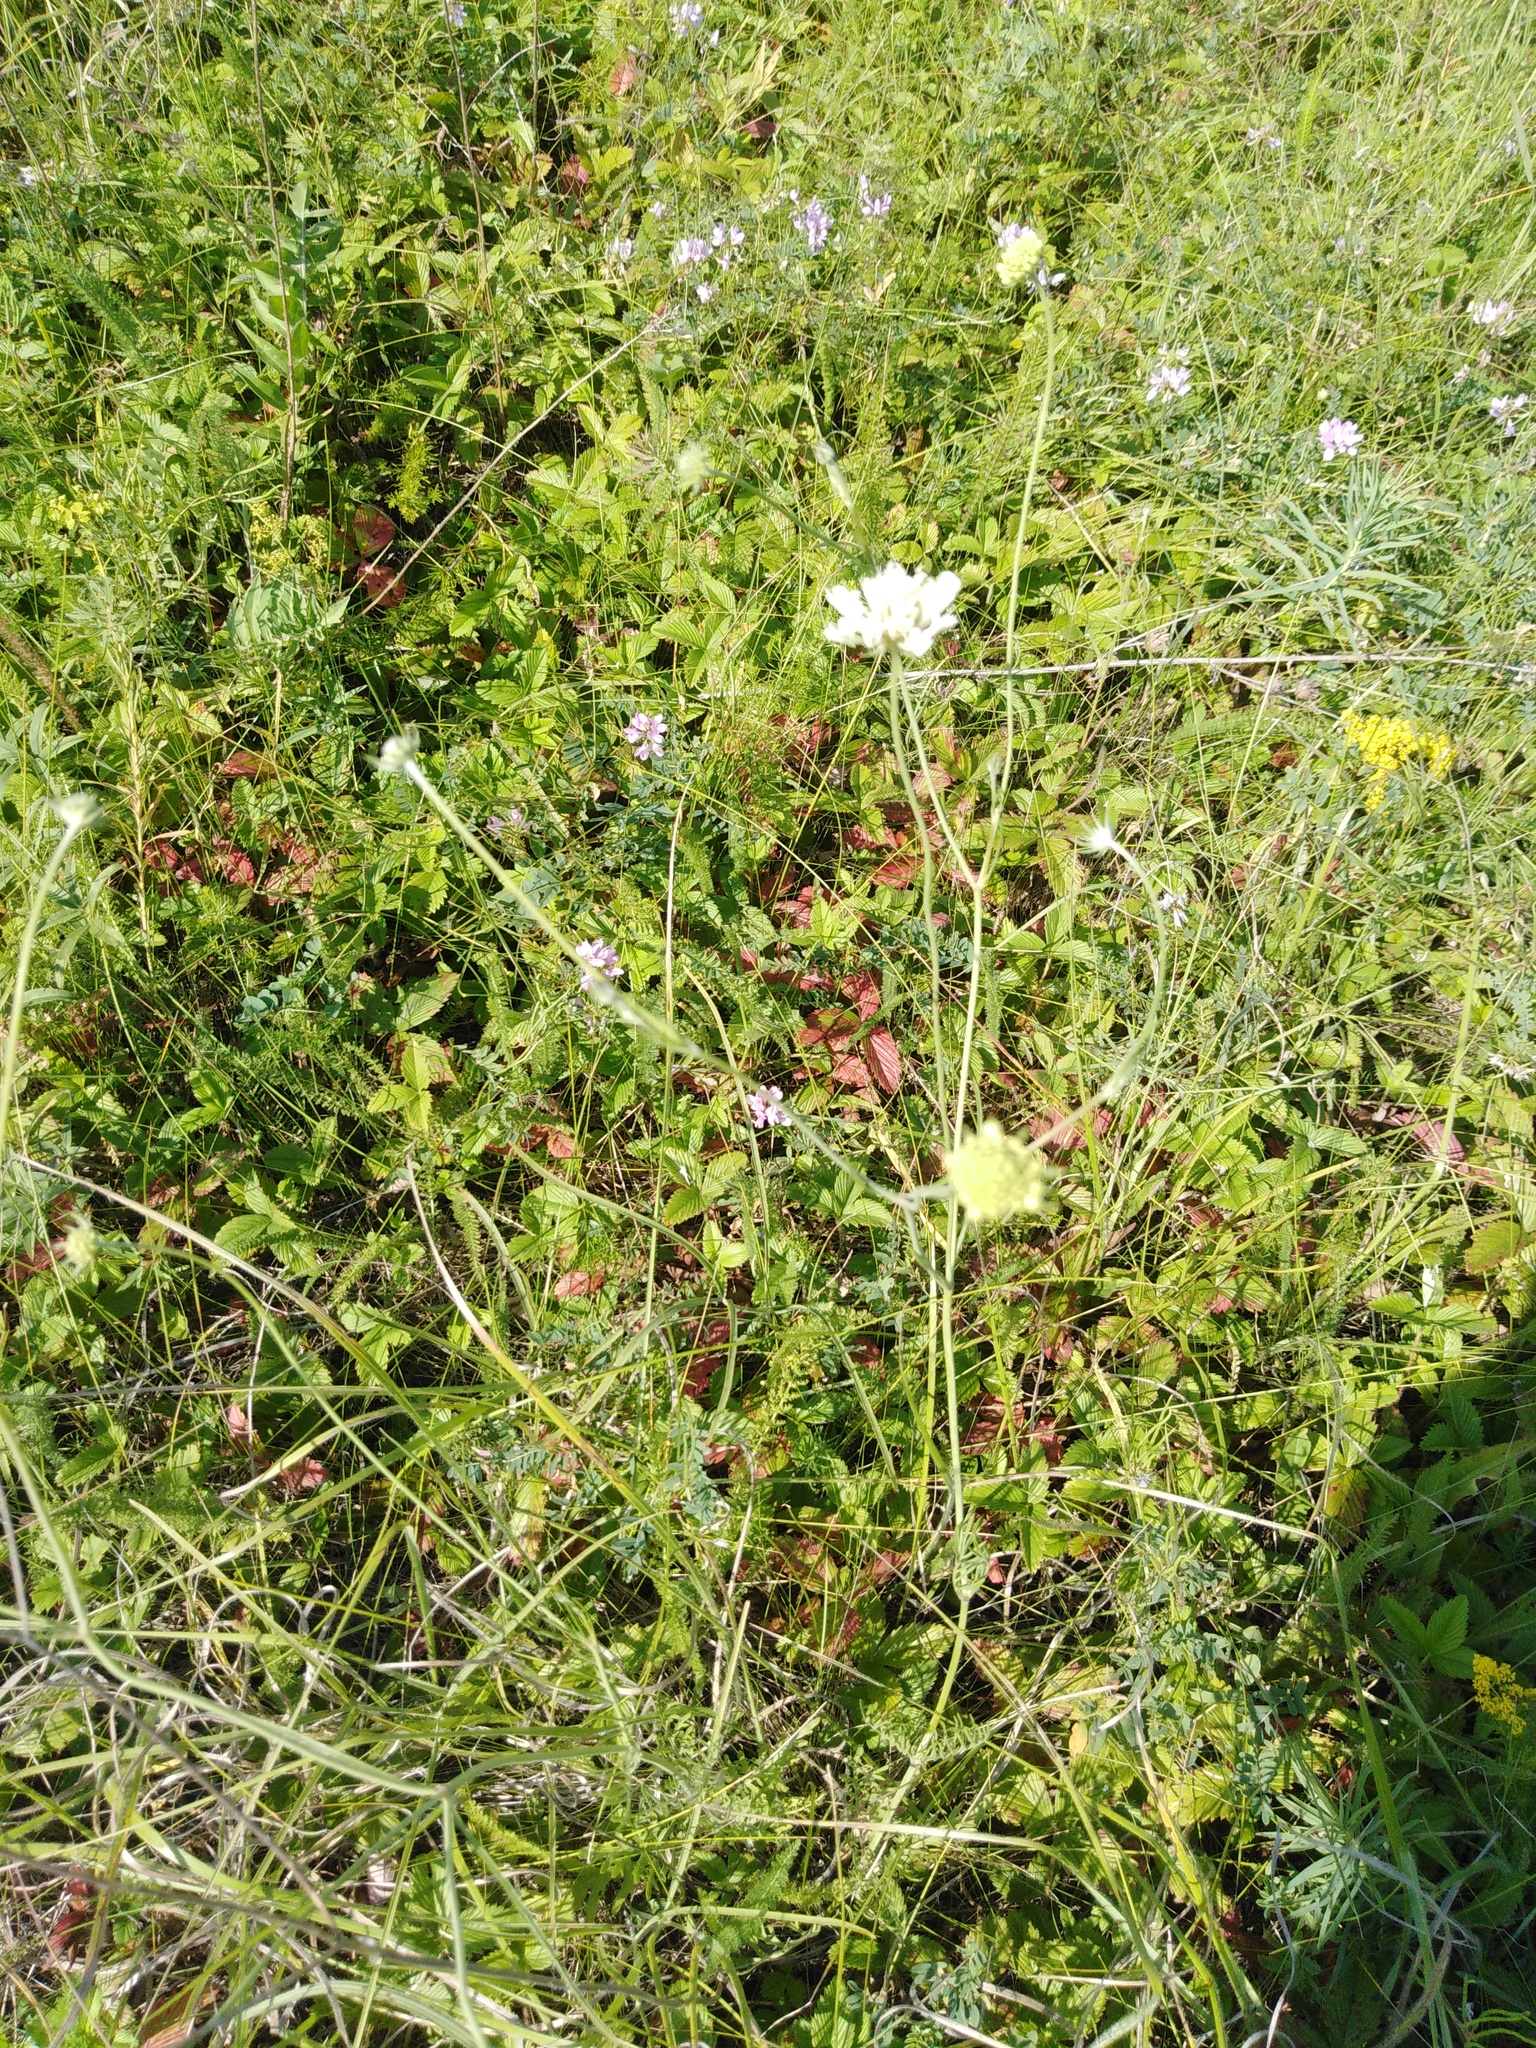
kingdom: Plantae
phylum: Tracheophyta
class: Magnoliopsida
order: Dipsacales
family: Caprifoliaceae
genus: Scabiosa
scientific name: Scabiosa ochroleuca
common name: Cream pincushions
